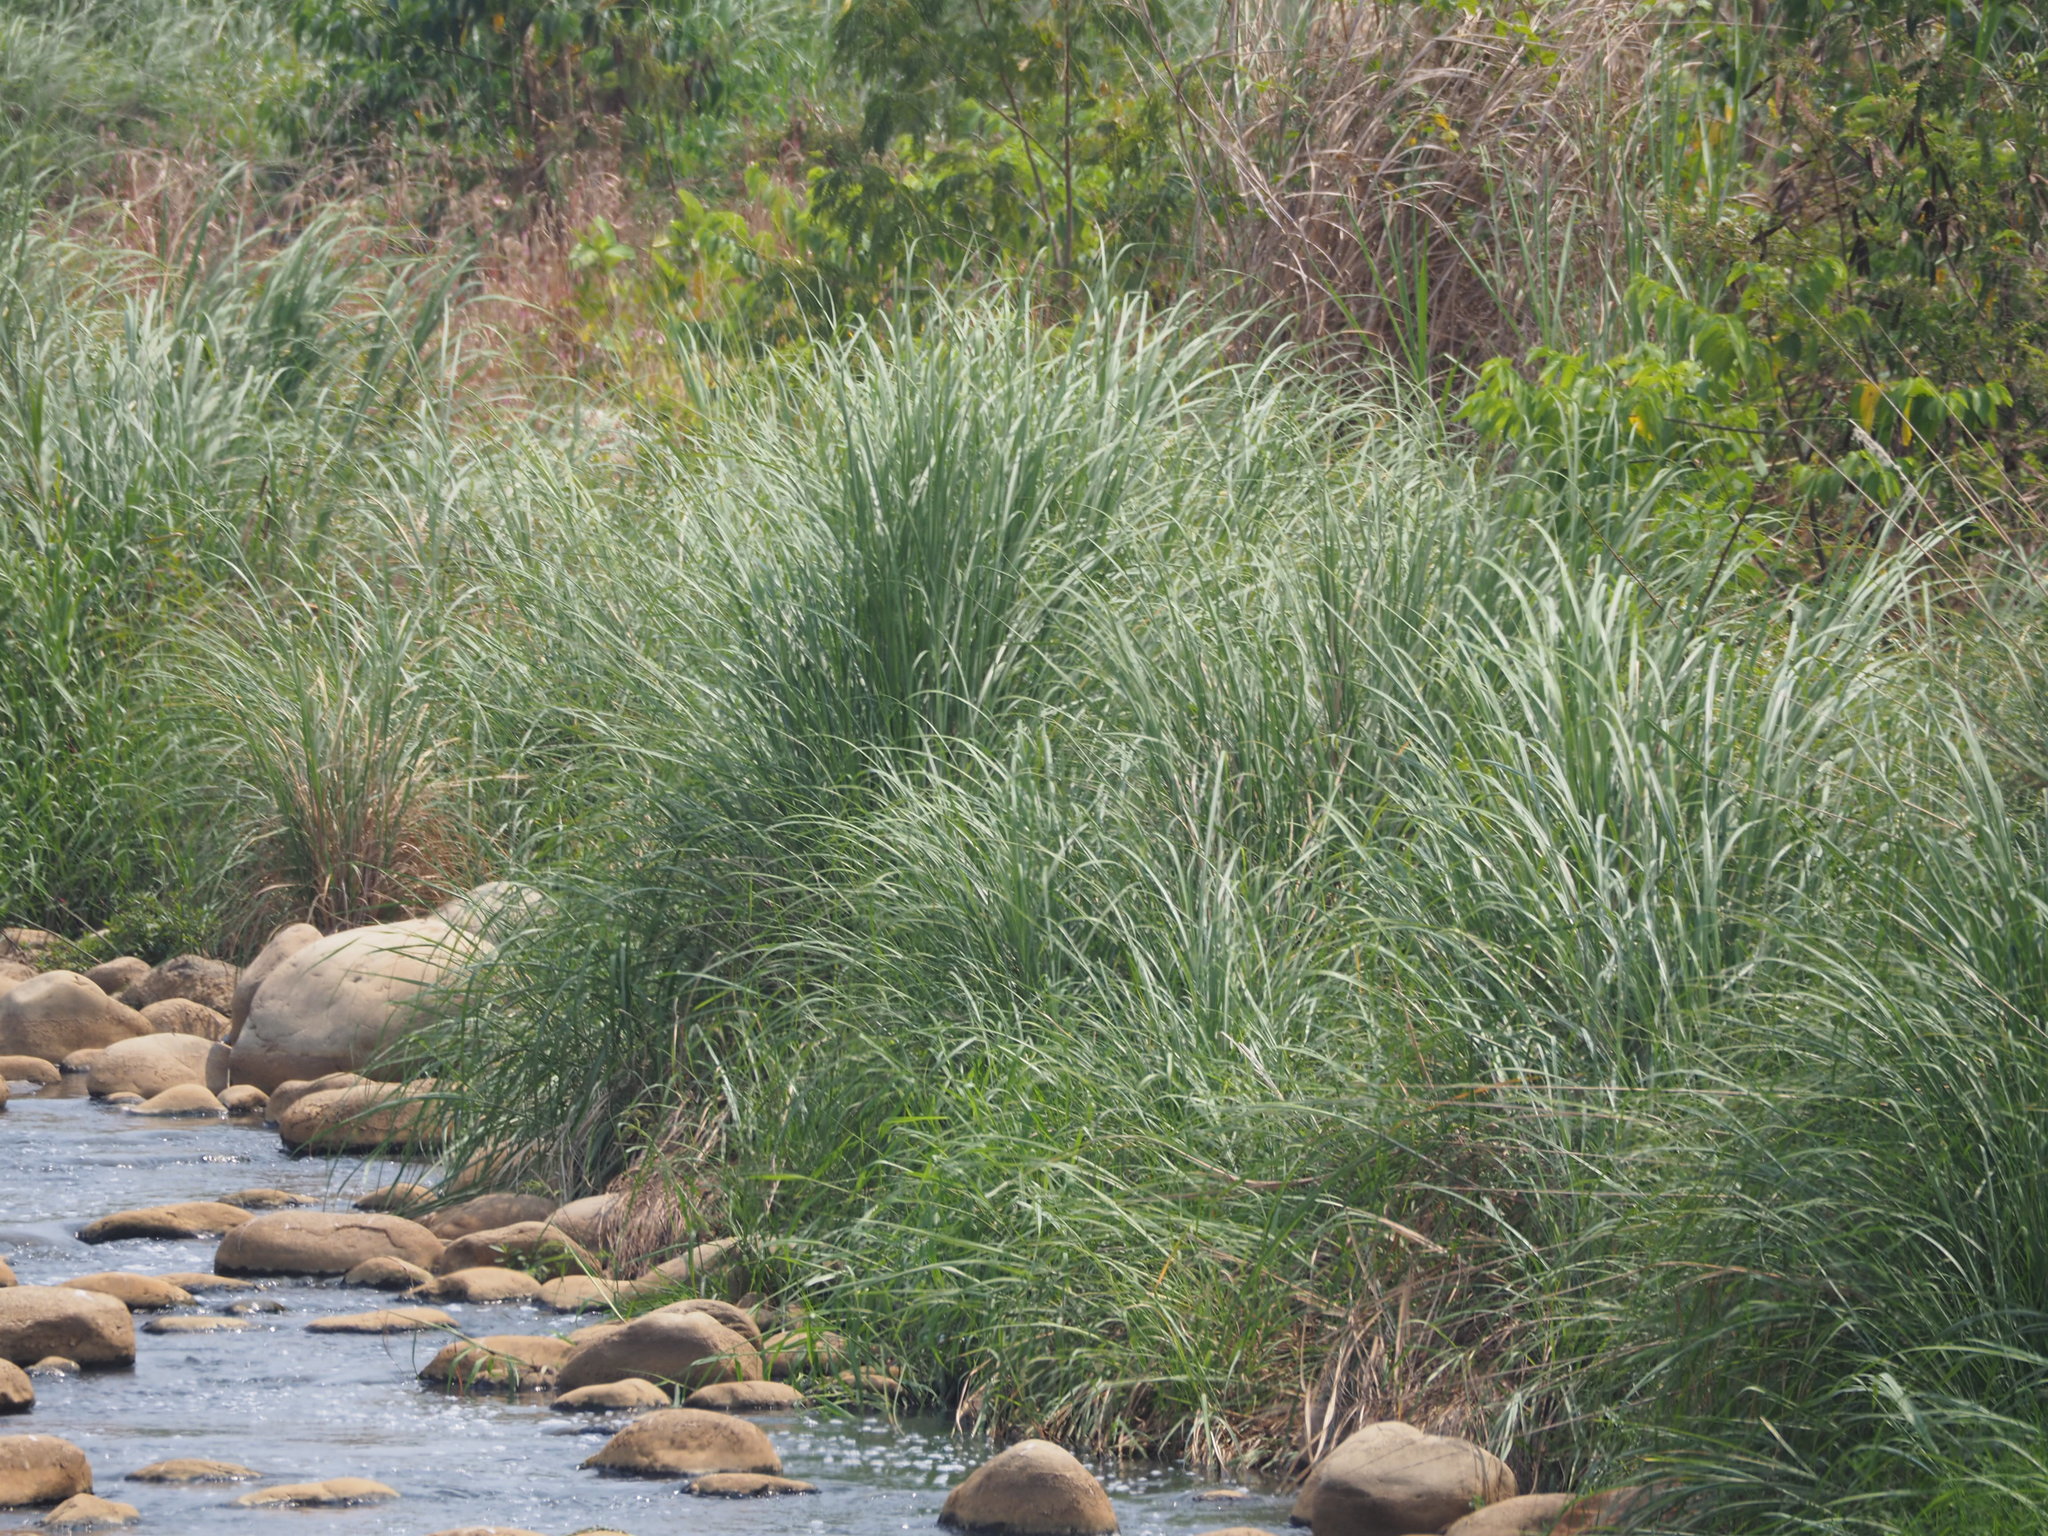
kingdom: Plantae
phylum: Tracheophyta
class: Liliopsida
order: Poales
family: Poaceae
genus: Saccharum
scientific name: Saccharum spontaneum
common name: Wild sugarcane
